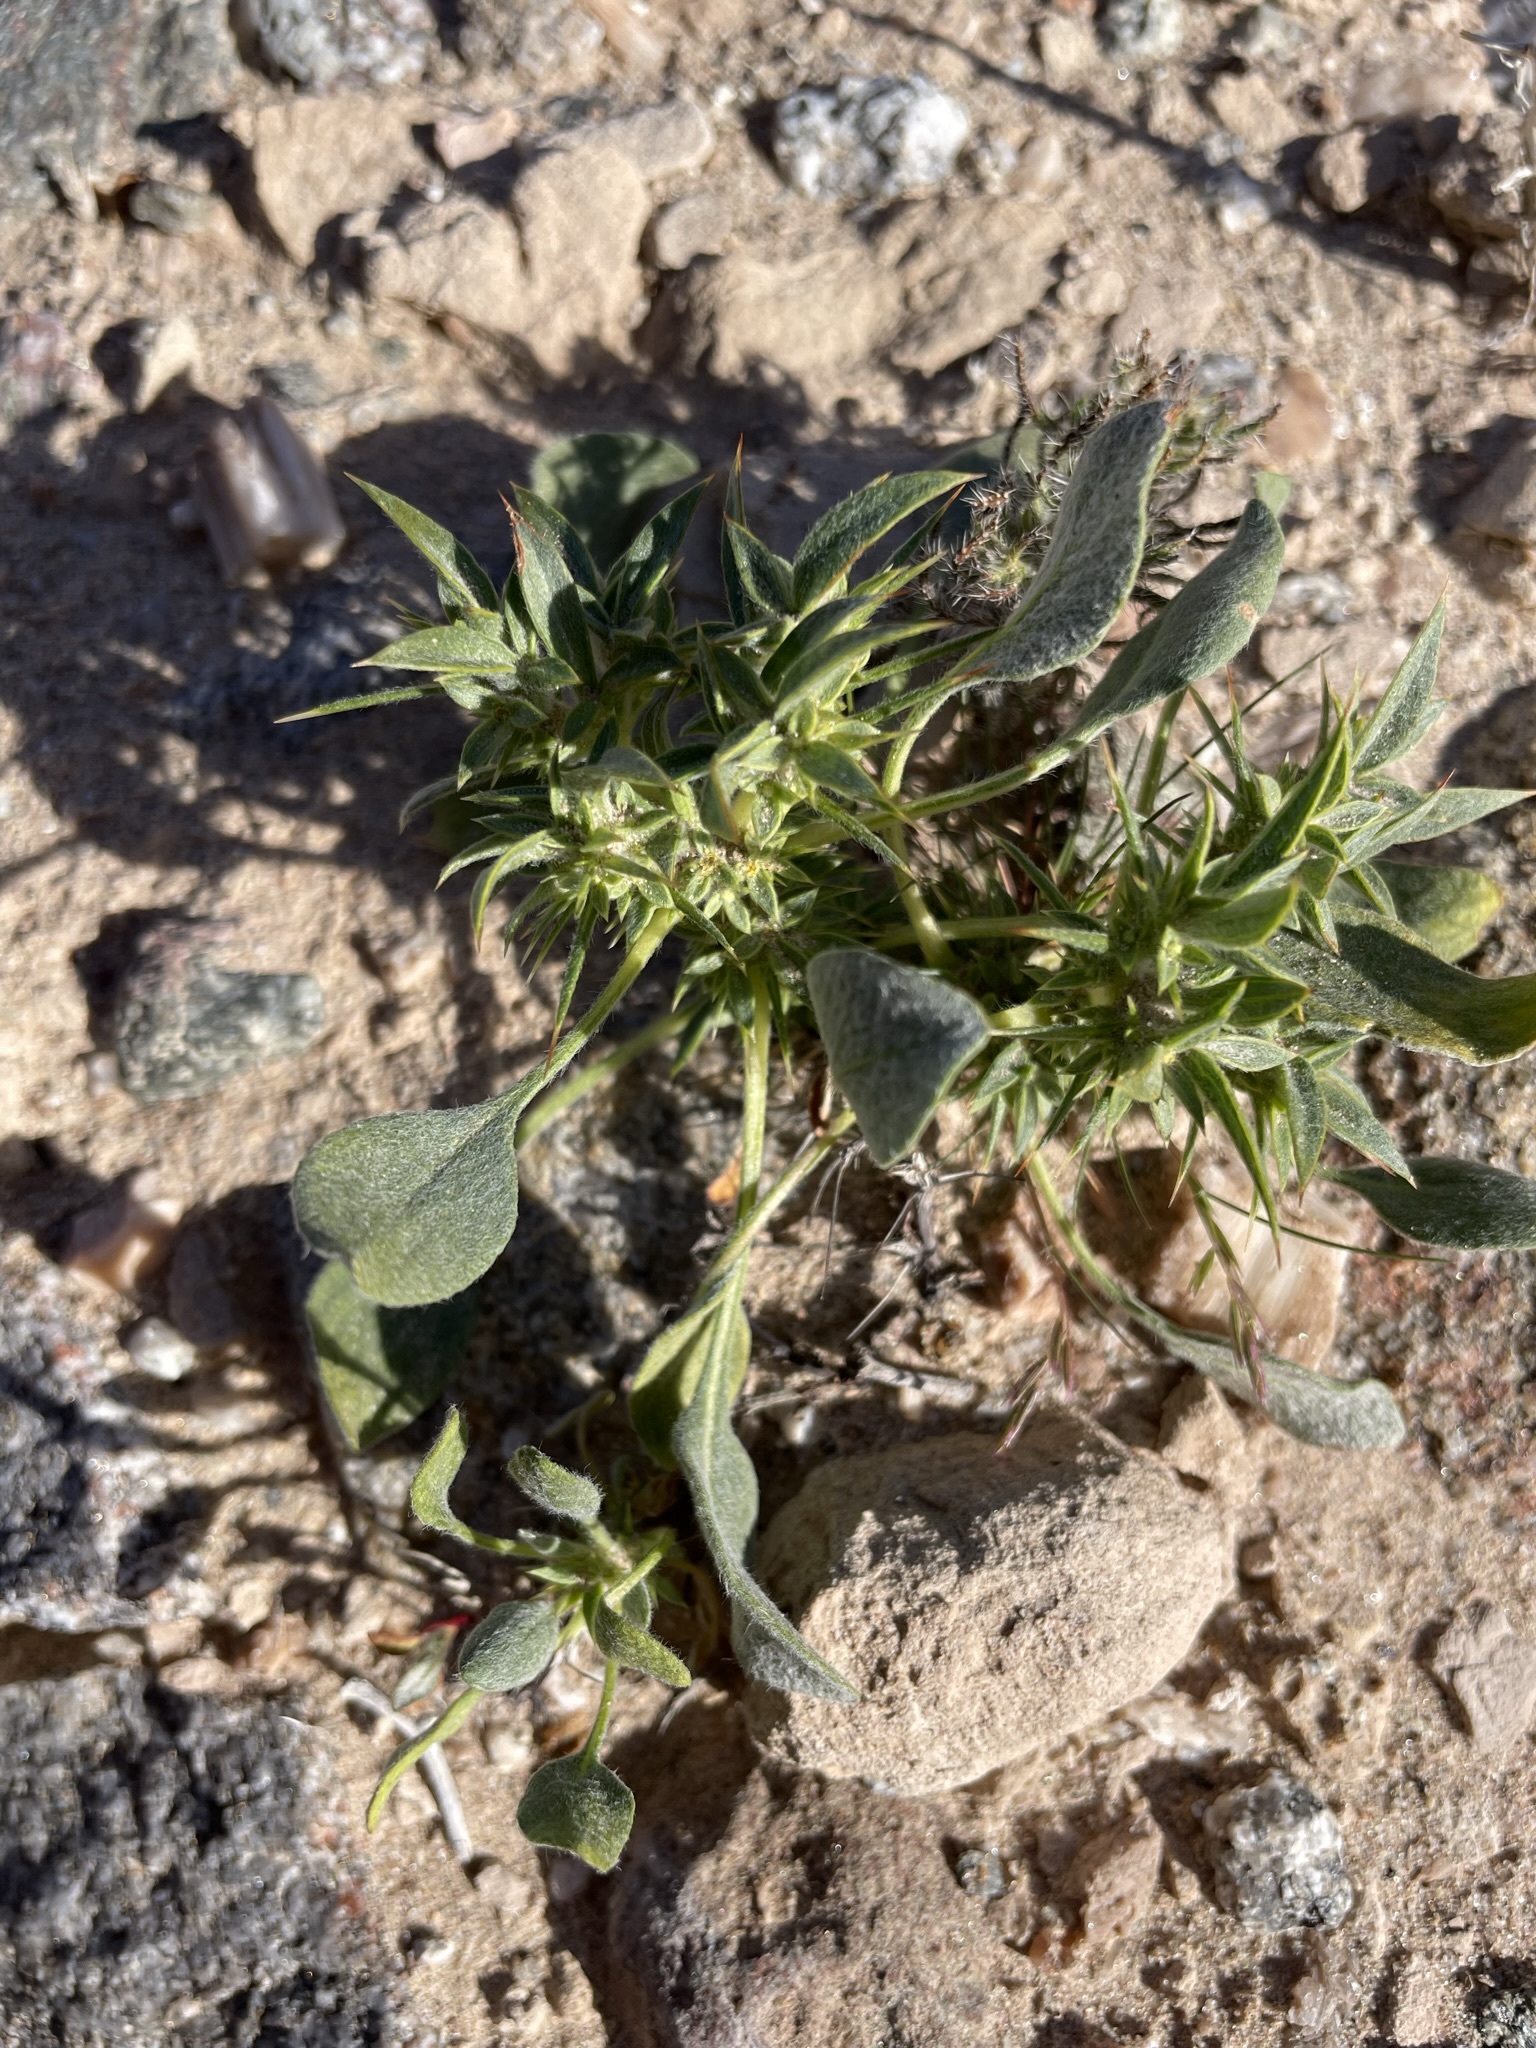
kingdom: Plantae
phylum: Tracheophyta
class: Magnoliopsida
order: Caryophyllales
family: Polygonaceae
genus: Chorizanthe
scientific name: Chorizanthe rigida
